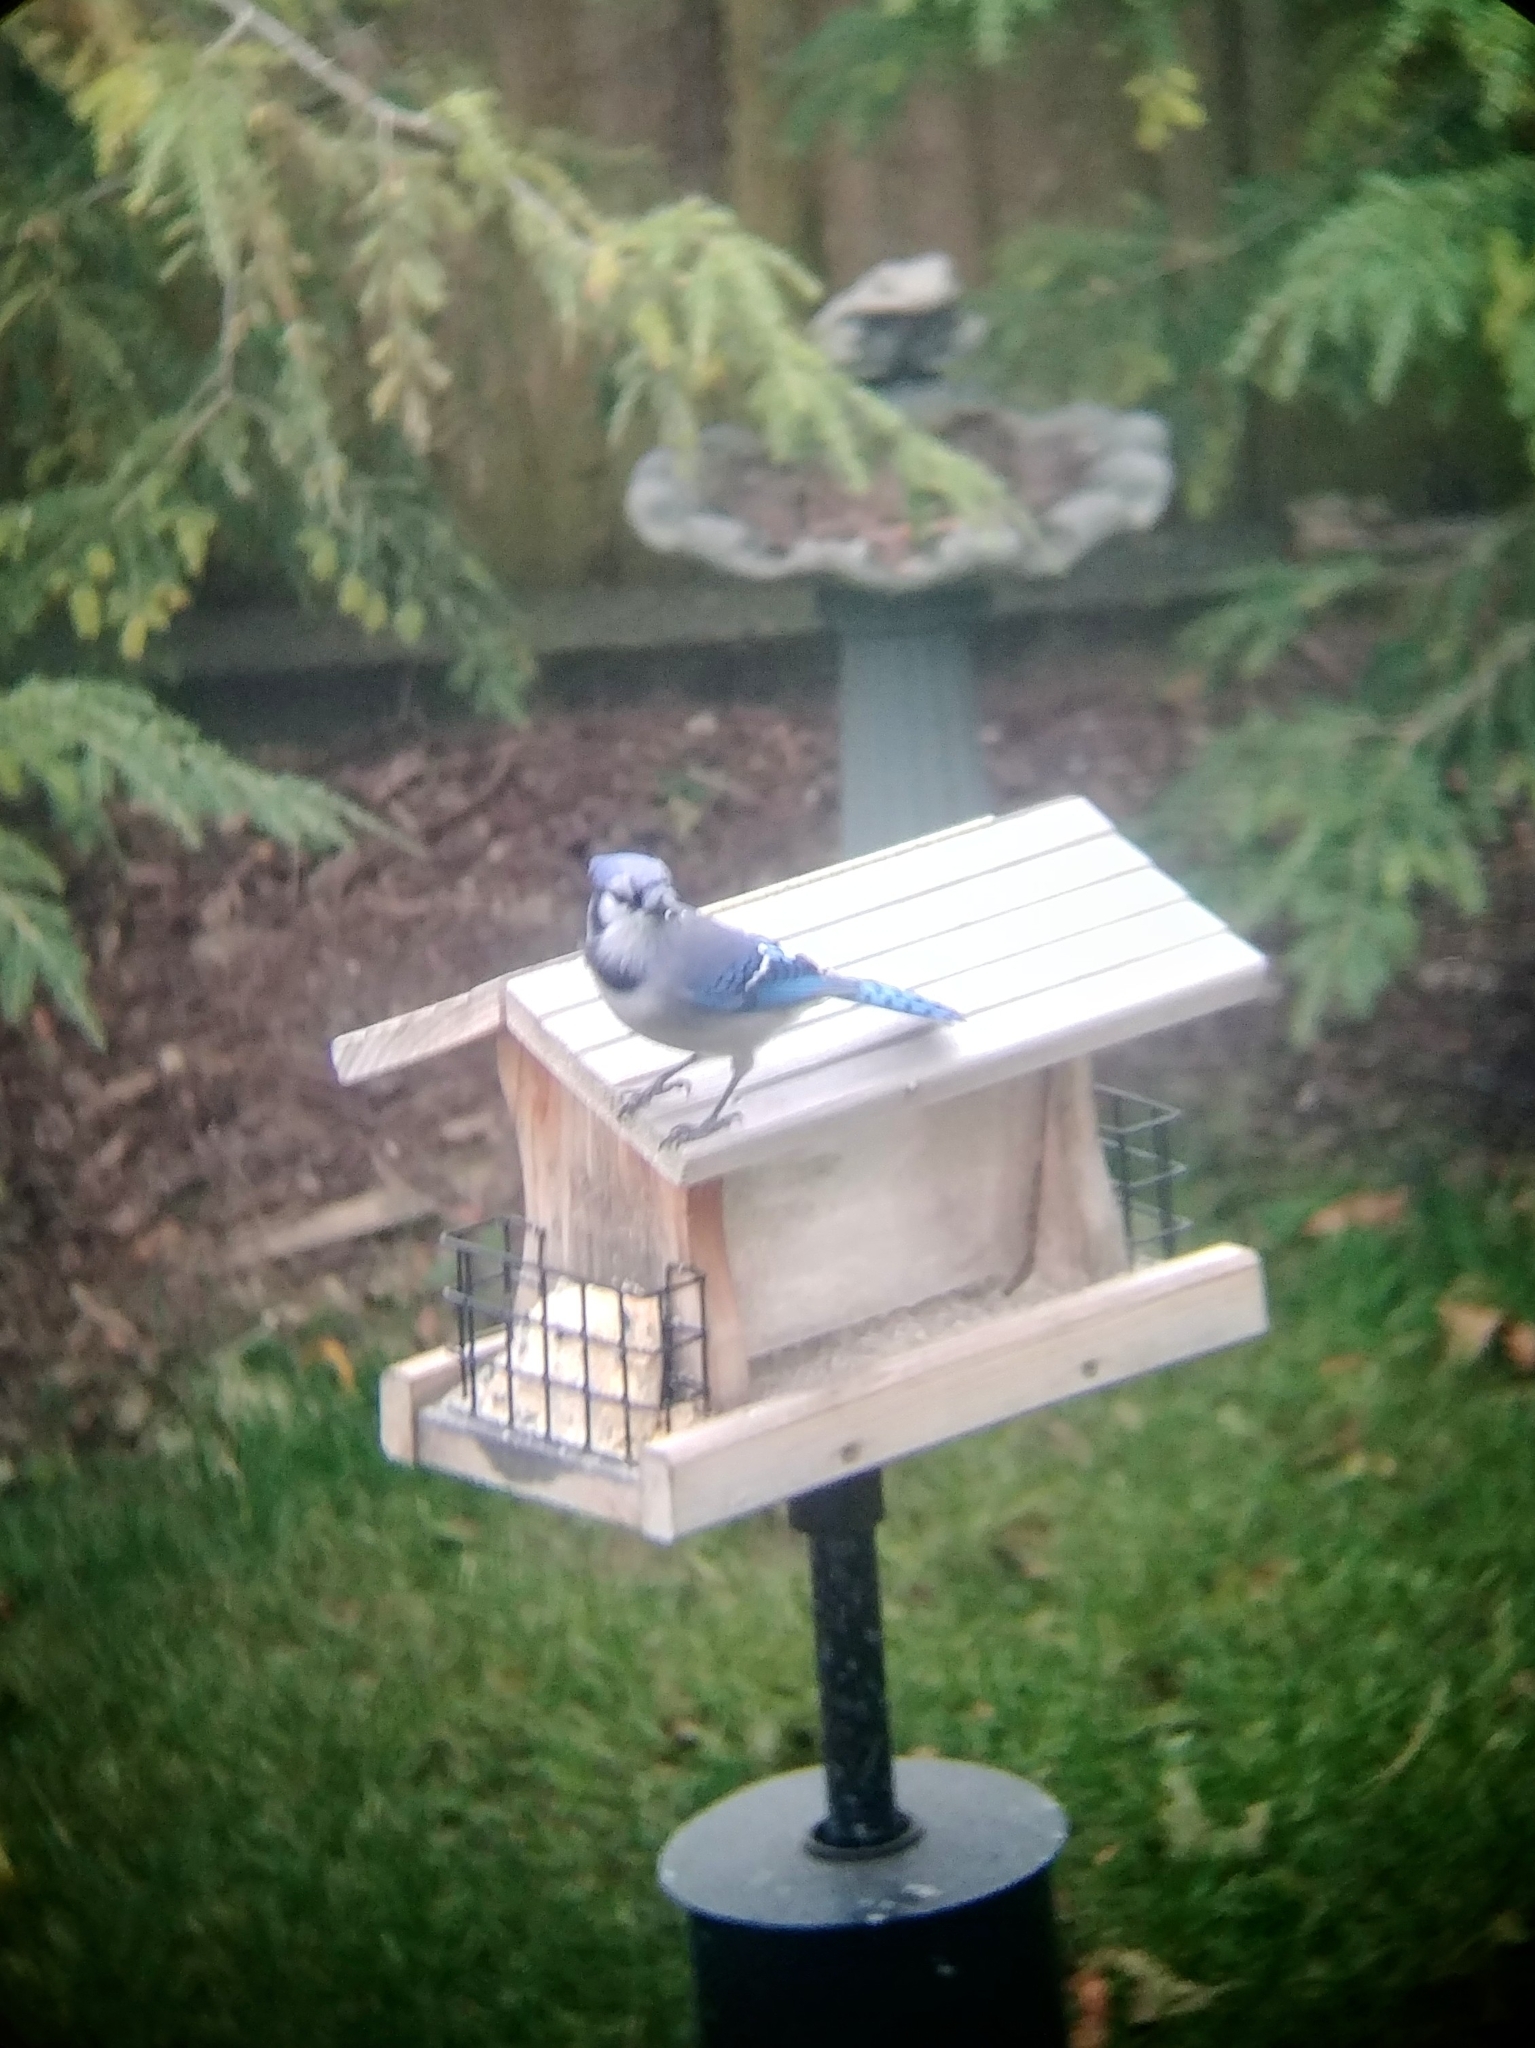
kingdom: Animalia
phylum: Chordata
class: Aves
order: Passeriformes
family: Corvidae
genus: Cyanocitta
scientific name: Cyanocitta cristata
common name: Blue jay
